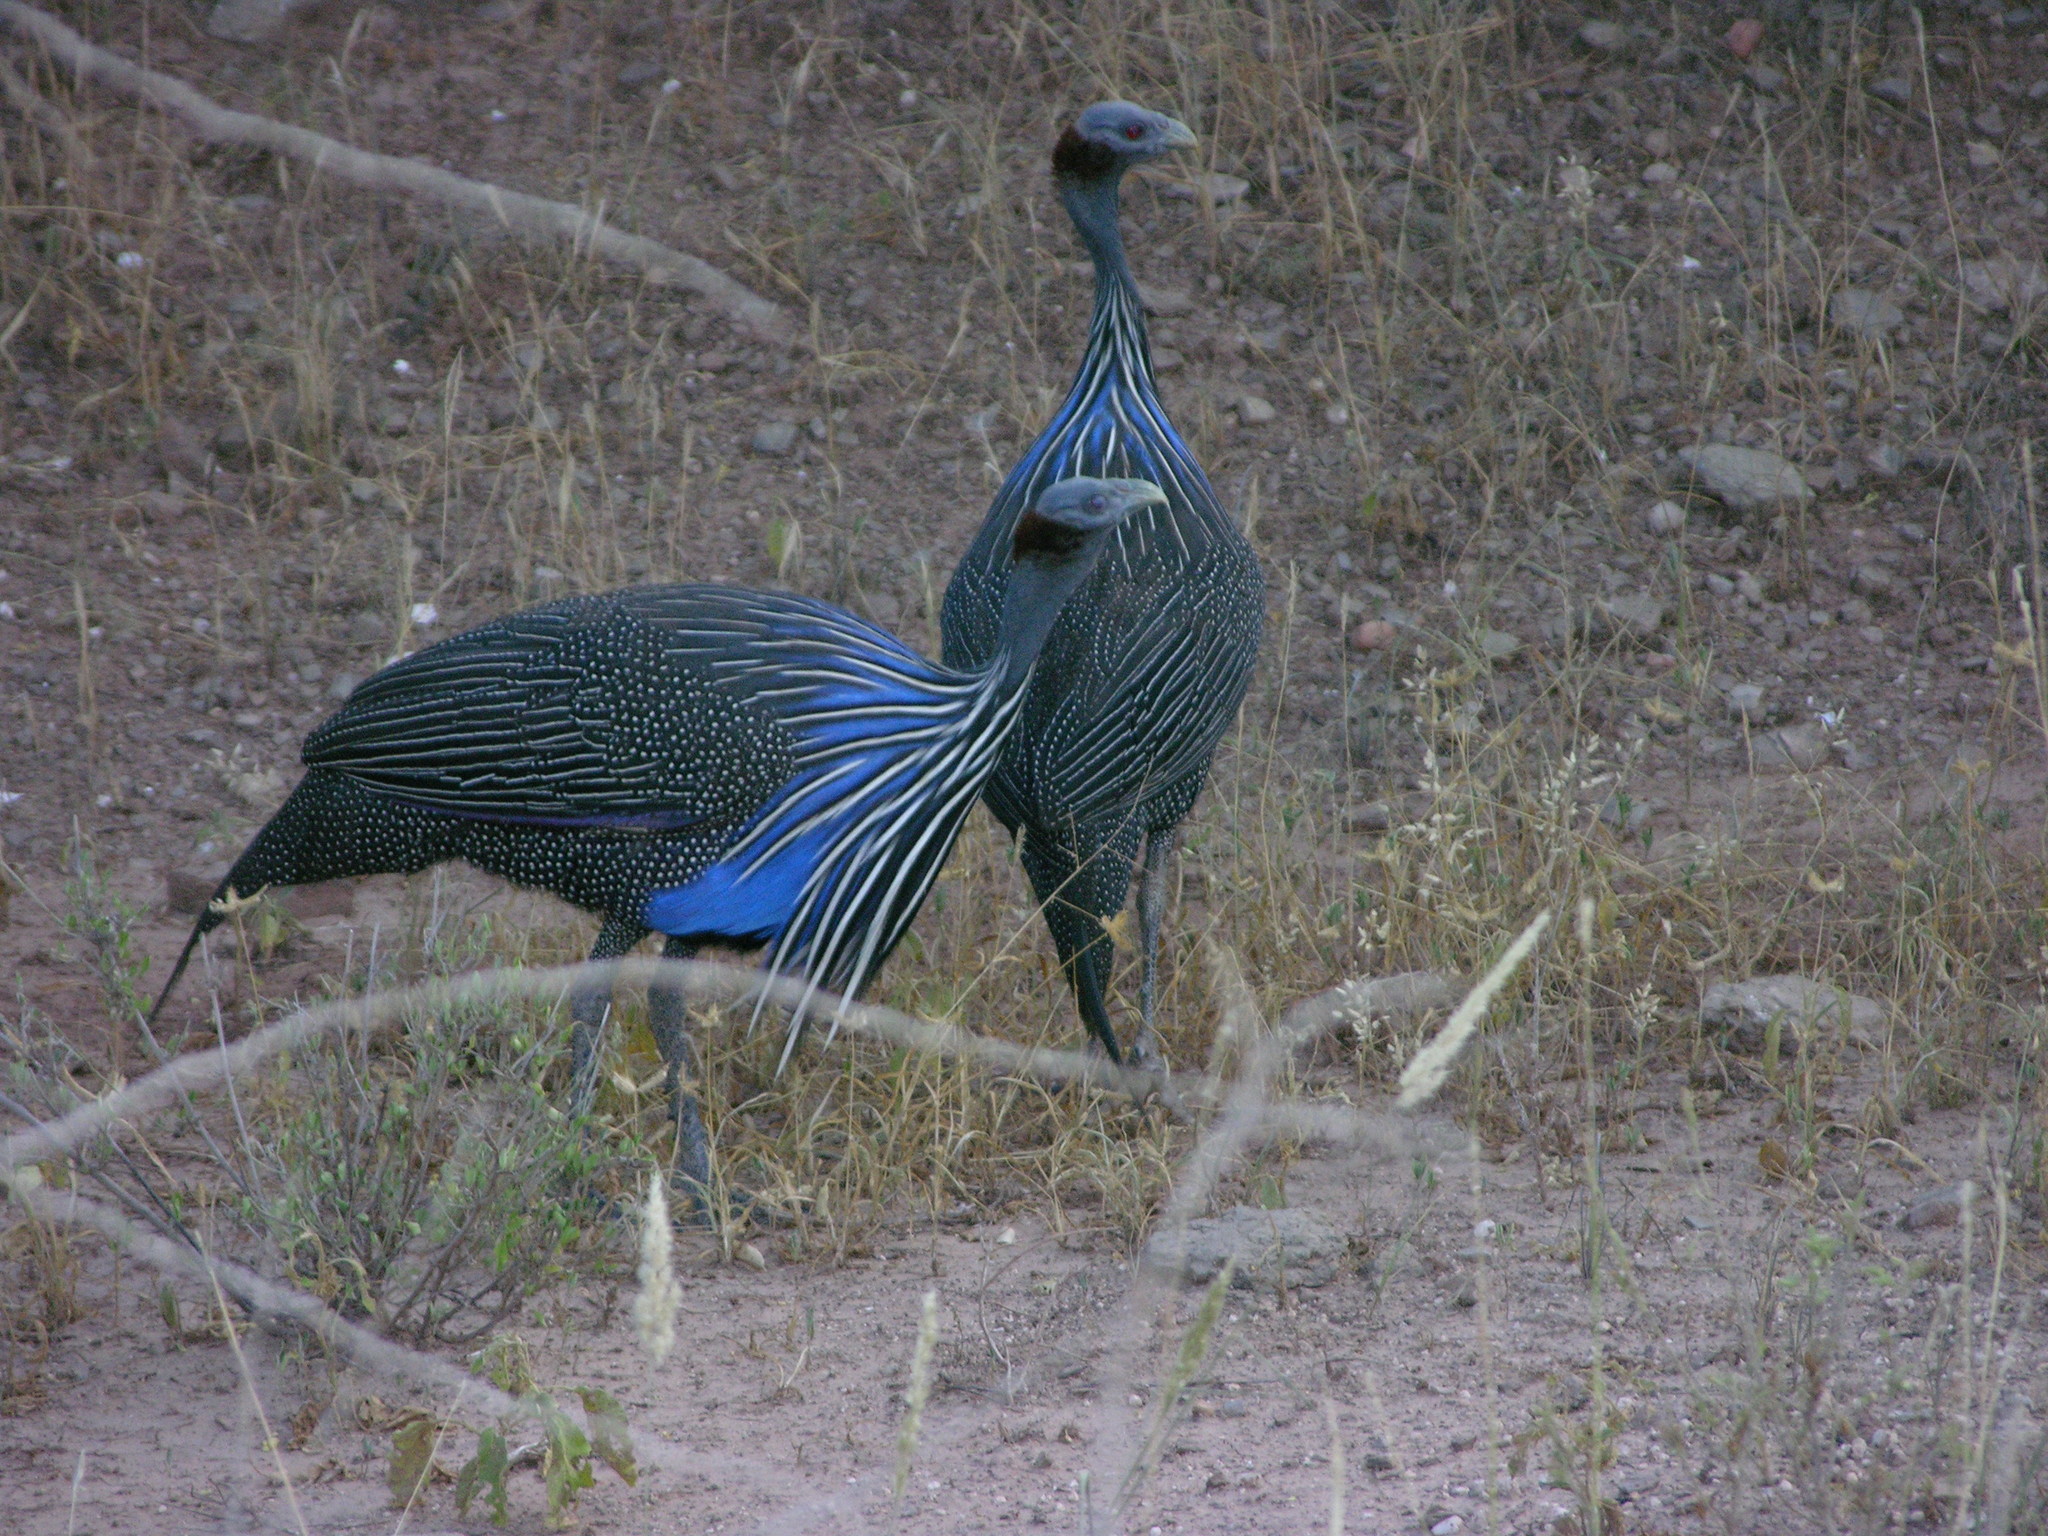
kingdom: Animalia
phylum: Chordata
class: Aves
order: Galliformes
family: Numididae
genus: Acryllium
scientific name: Acryllium vulturinum
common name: Vulturine guineafowl
